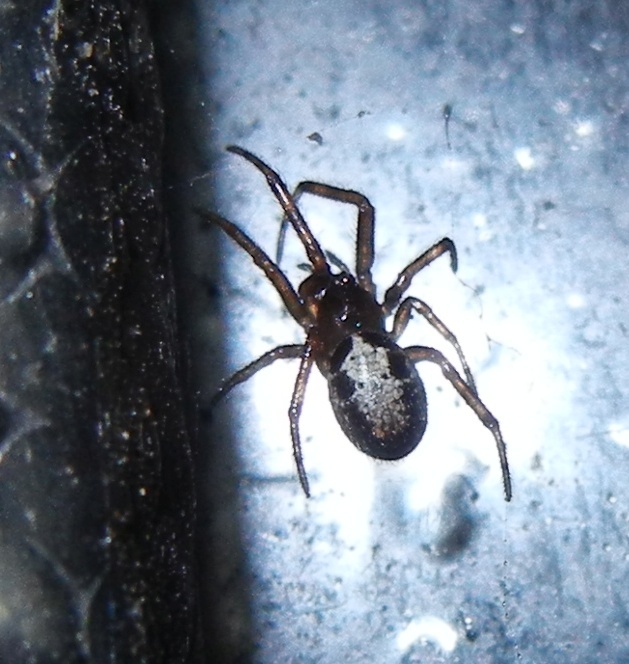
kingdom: Animalia
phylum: Arthropoda
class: Arachnida
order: Araneae
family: Theridiidae
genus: Steatoda
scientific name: Steatoda nobilis
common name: Cobweb weaver
